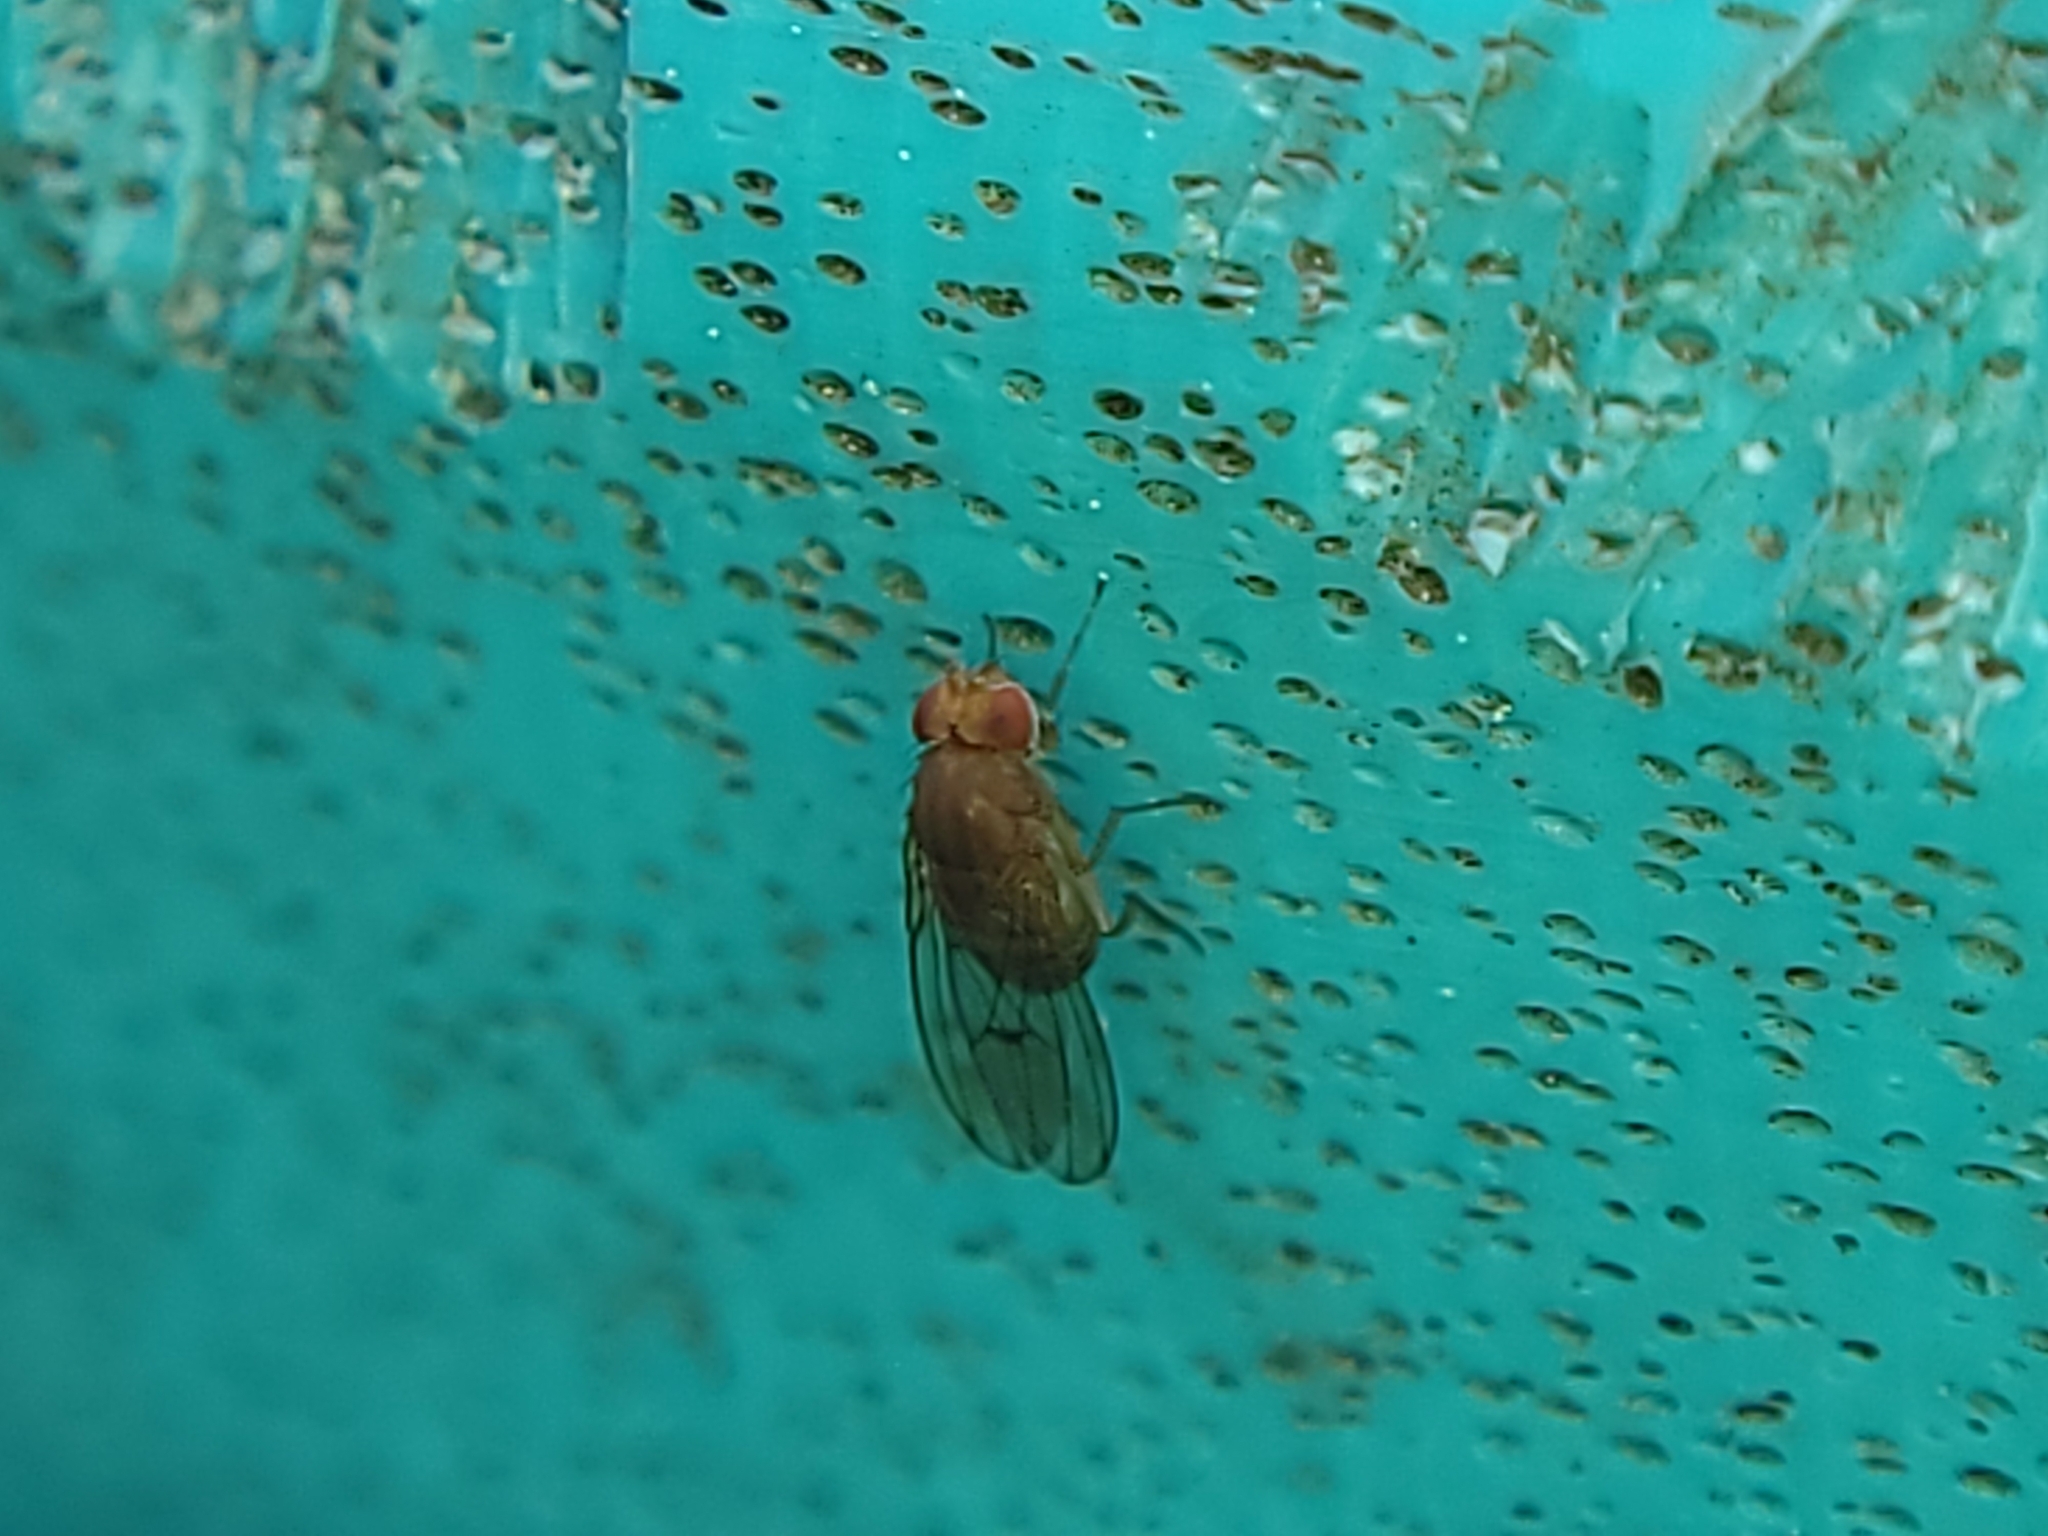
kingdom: Animalia
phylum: Arthropoda
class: Insecta
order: Diptera
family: Drosophilidae
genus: Drosophila
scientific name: Drosophila immigrans
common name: Pomace fly
